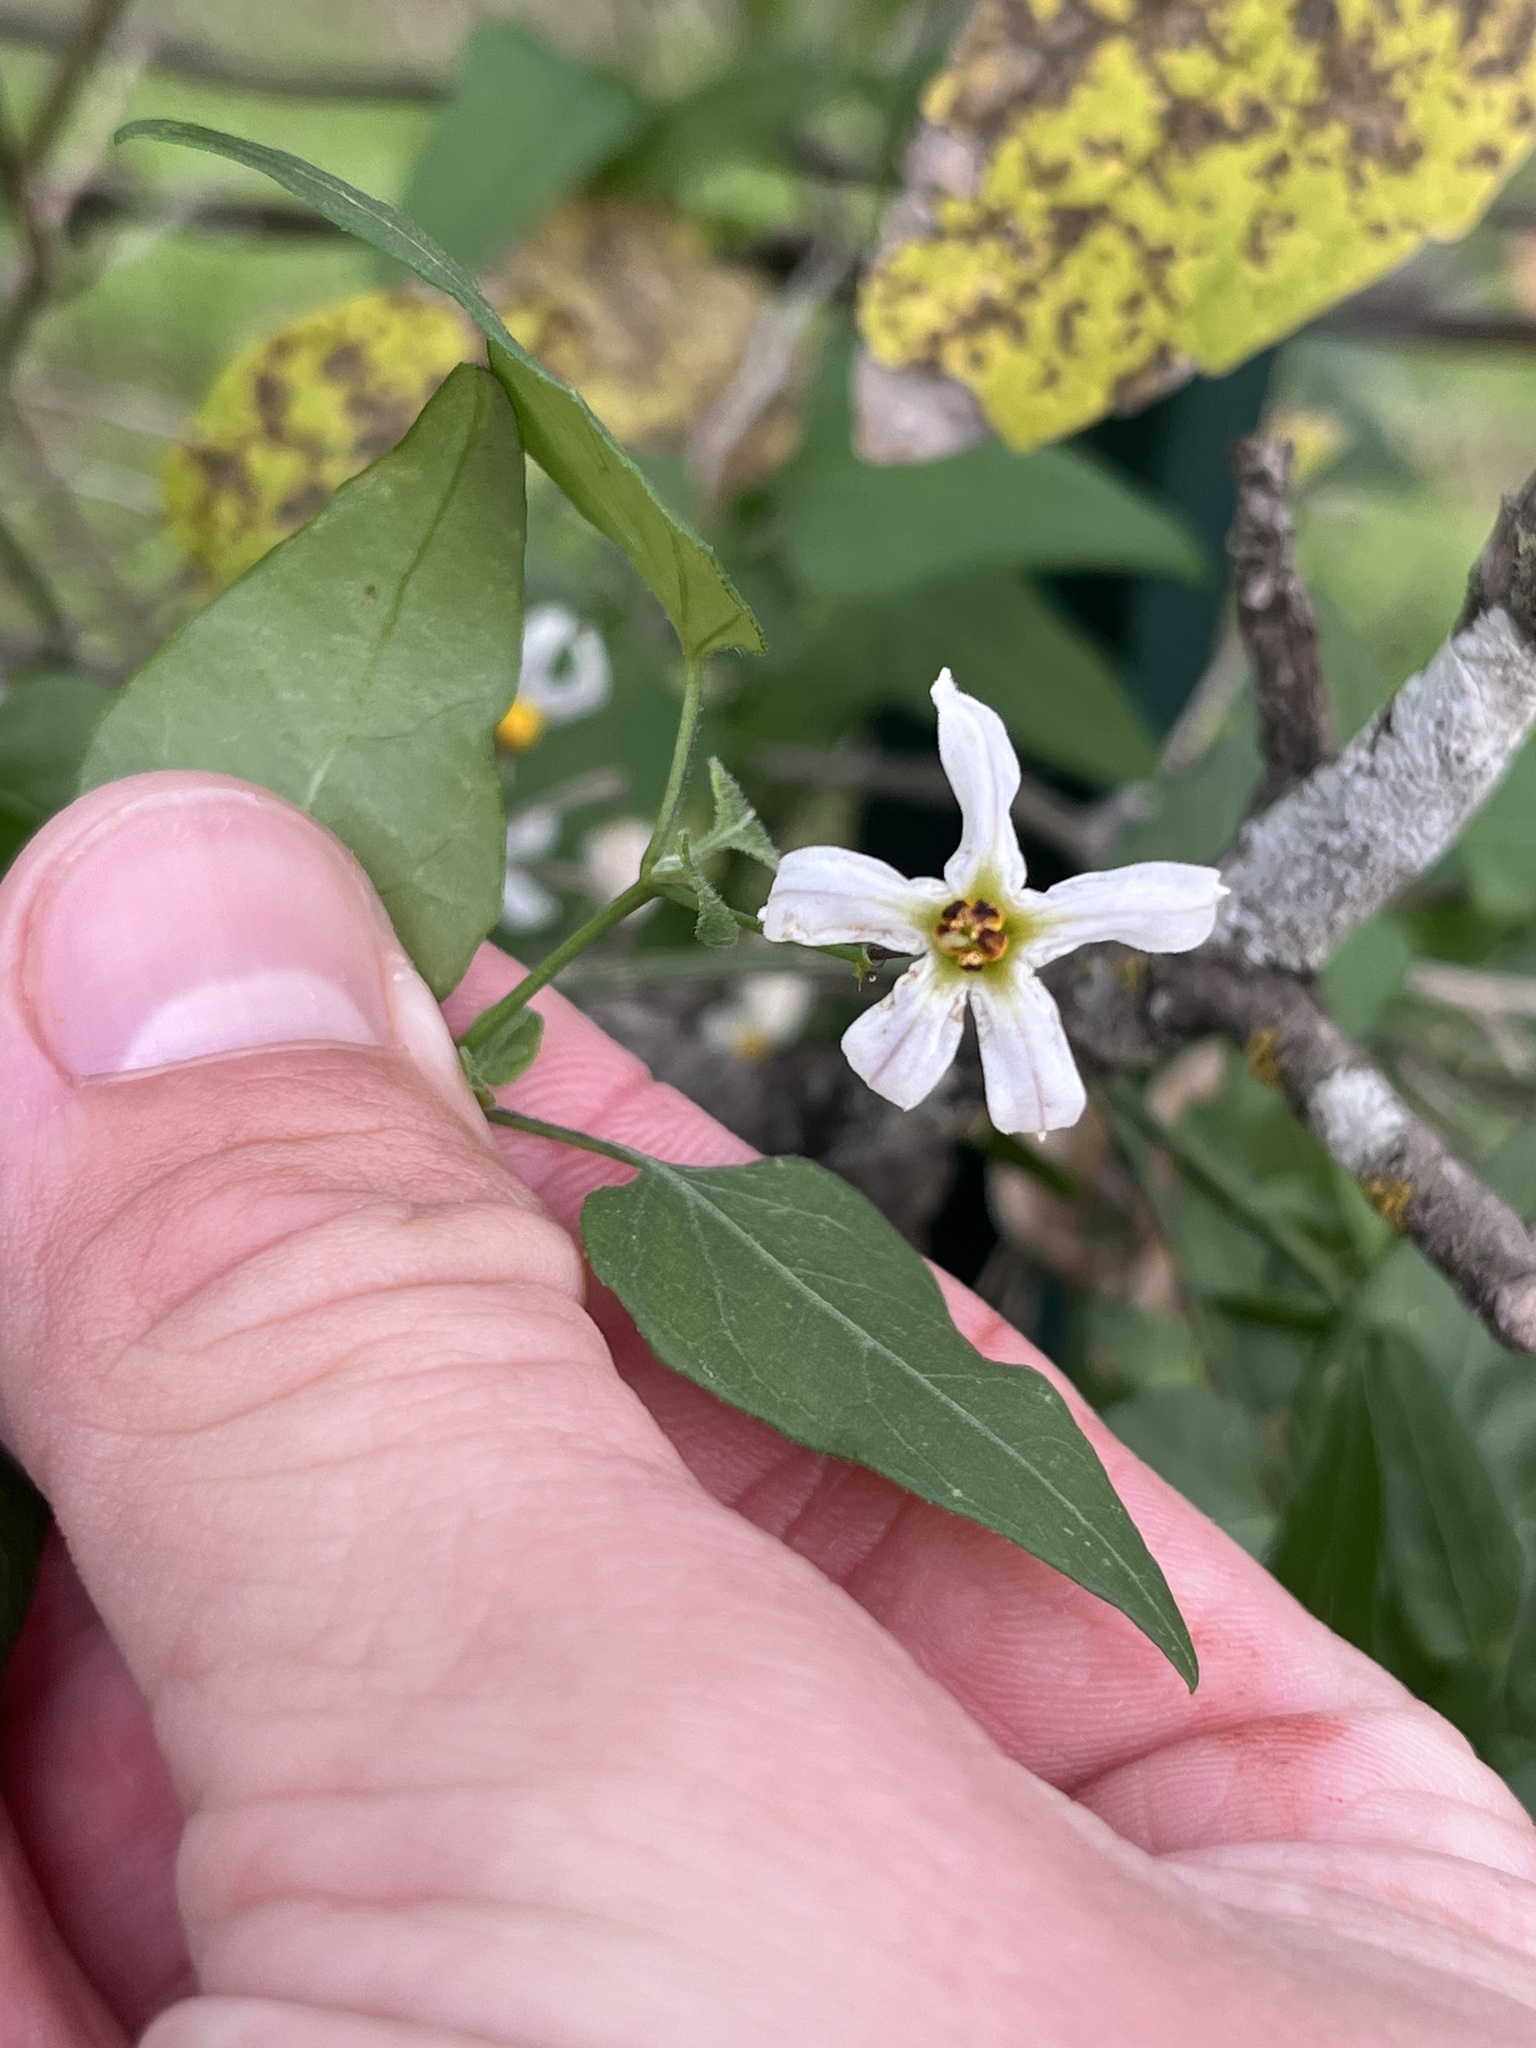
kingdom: Plantae
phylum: Tracheophyta
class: Magnoliopsida
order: Solanales
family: Solanaceae
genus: Solanum
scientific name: Solanum triquetrum
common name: Texas nightshade
